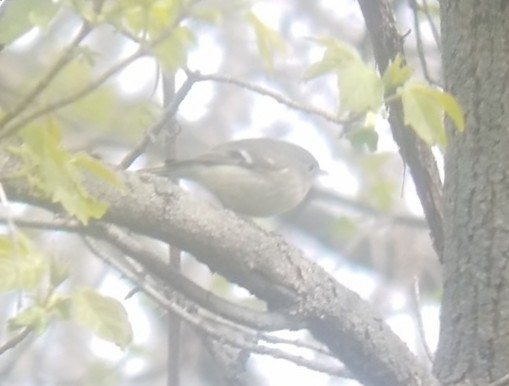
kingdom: Animalia
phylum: Chordata
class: Aves
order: Passeriformes
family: Regulidae
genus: Regulus
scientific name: Regulus calendula
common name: Ruby-crowned kinglet
